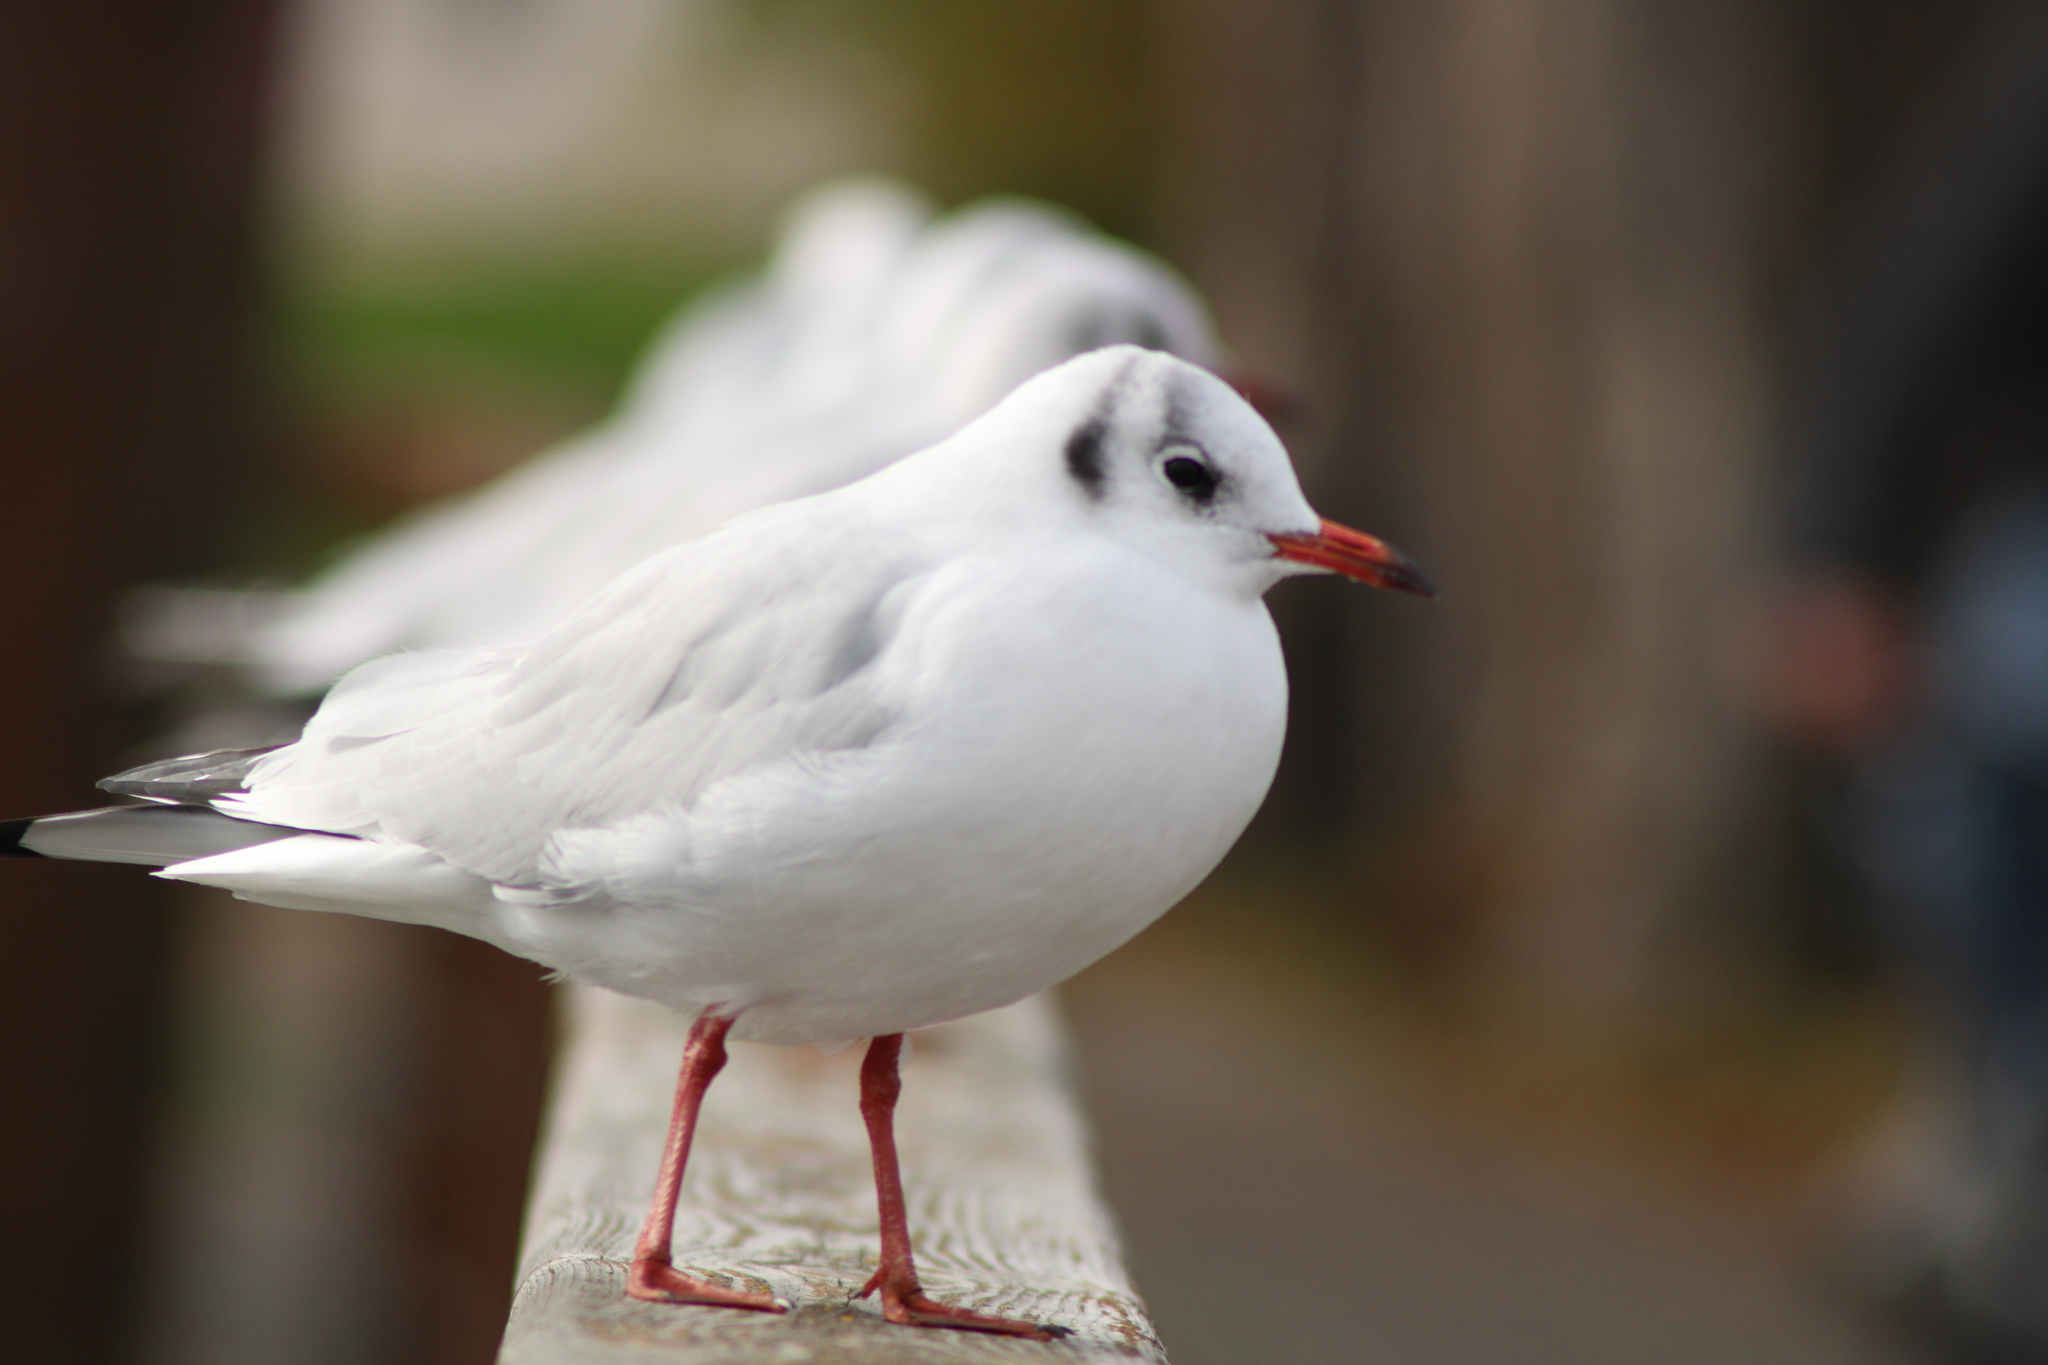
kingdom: Animalia
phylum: Chordata
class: Aves
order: Charadriiformes
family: Laridae
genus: Chroicocephalus
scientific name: Chroicocephalus ridibundus
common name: Black-headed gull
